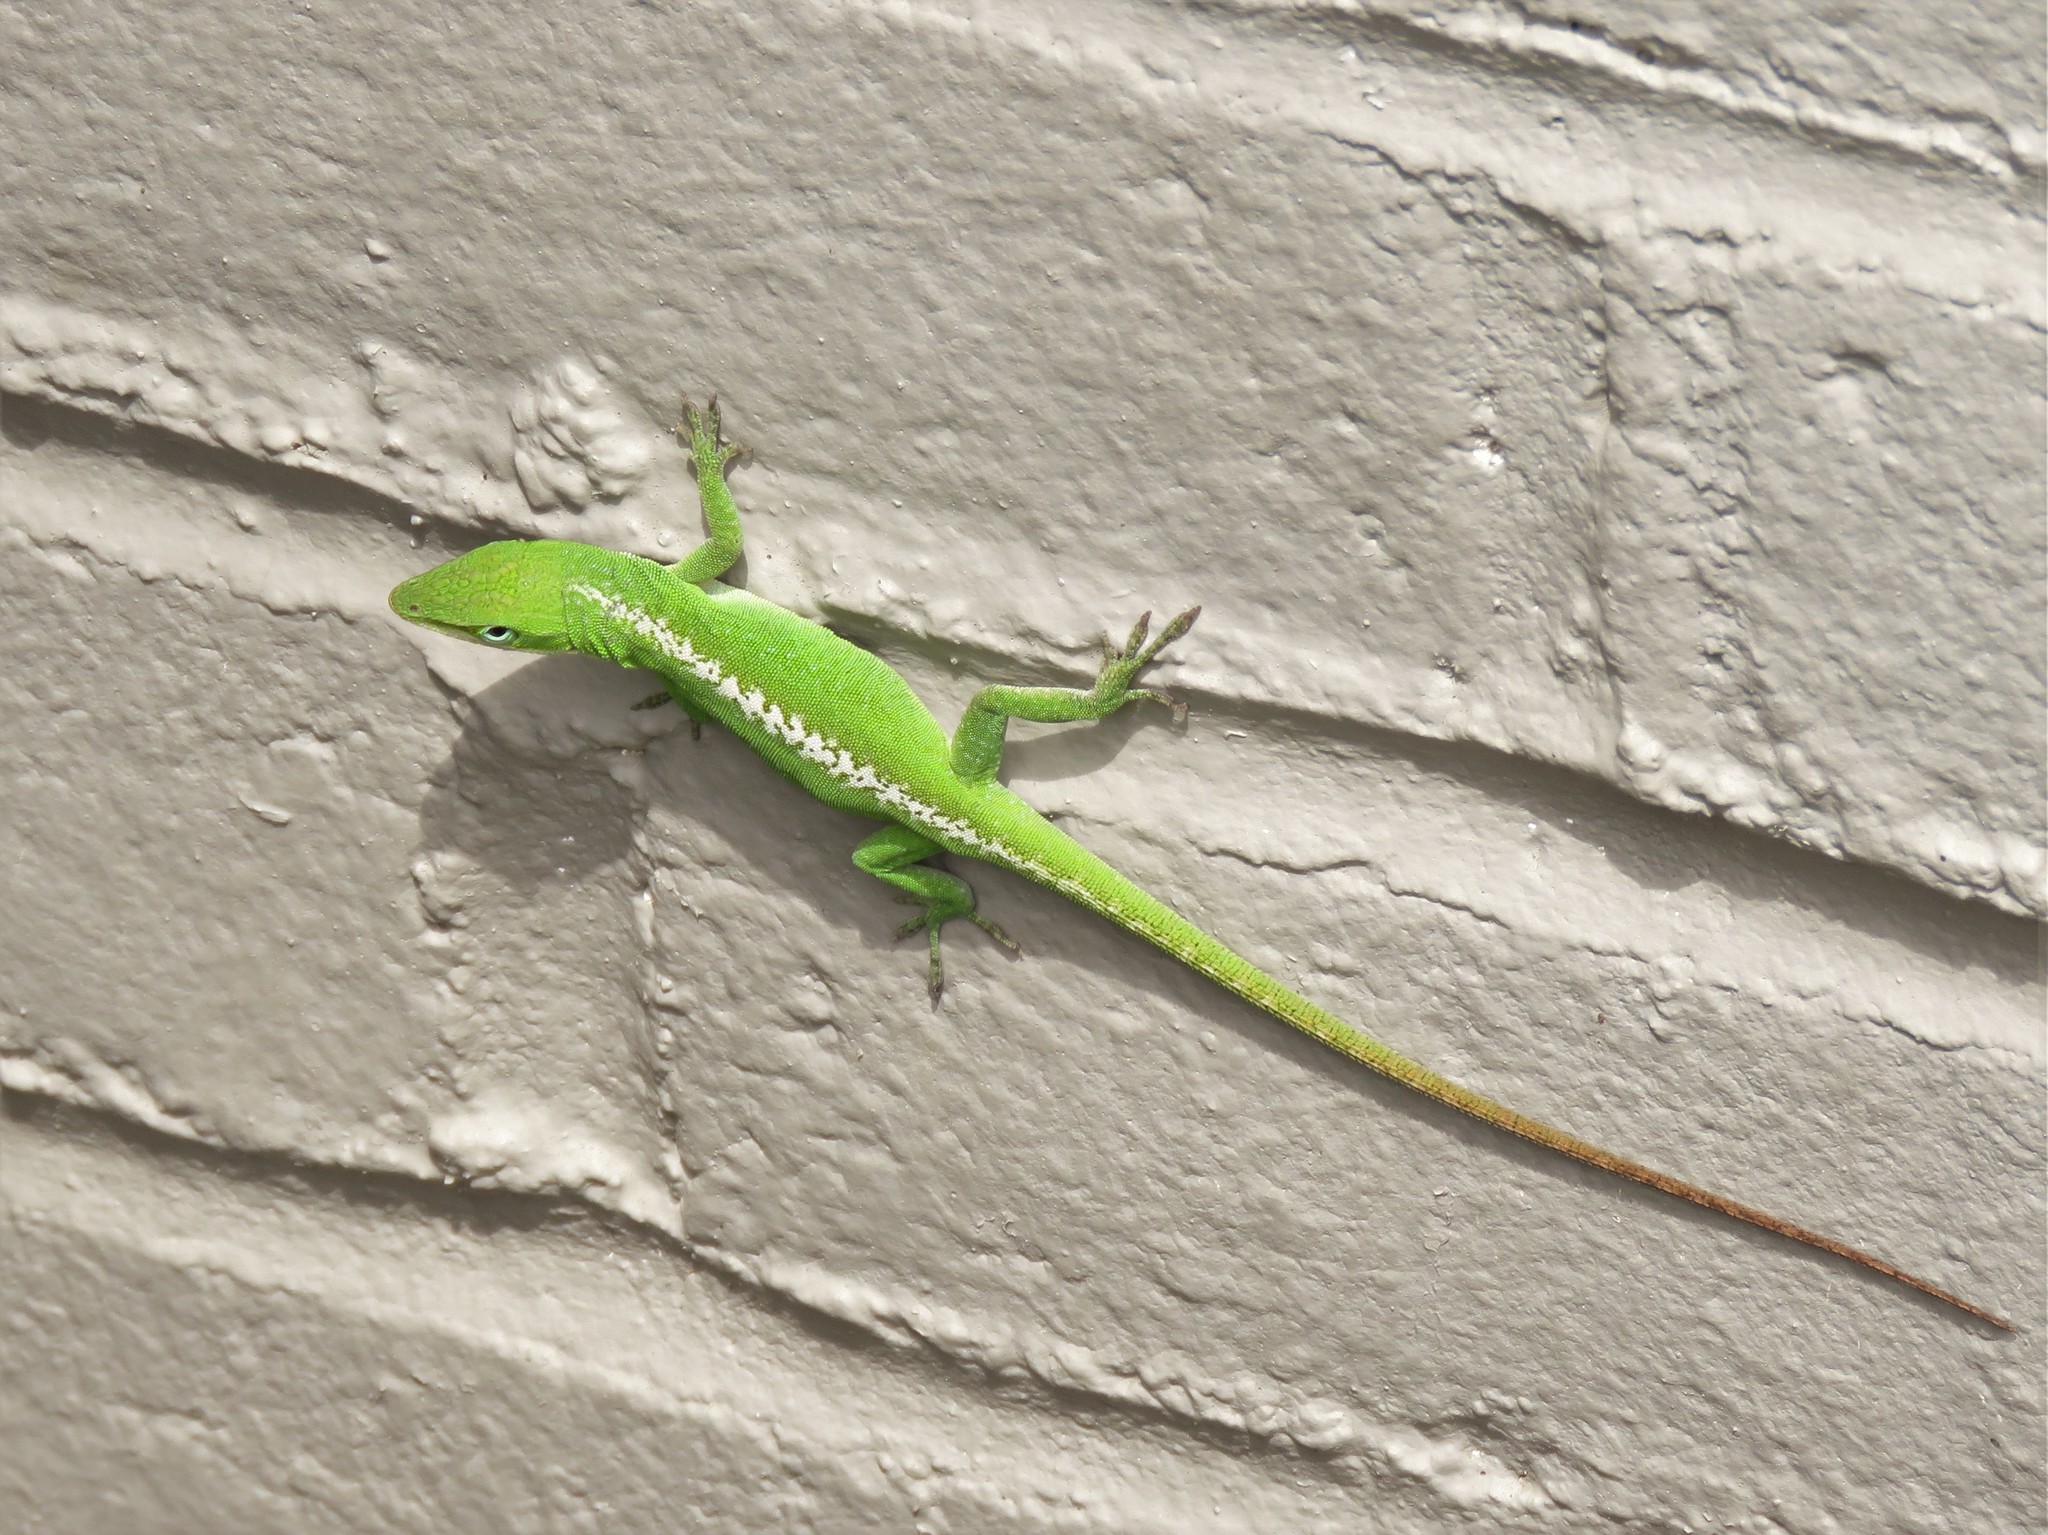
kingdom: Animalia
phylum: Chordata
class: Squamata
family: Dactyloidae
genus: Anolis
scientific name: Anolis carolinensis
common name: Green anole
